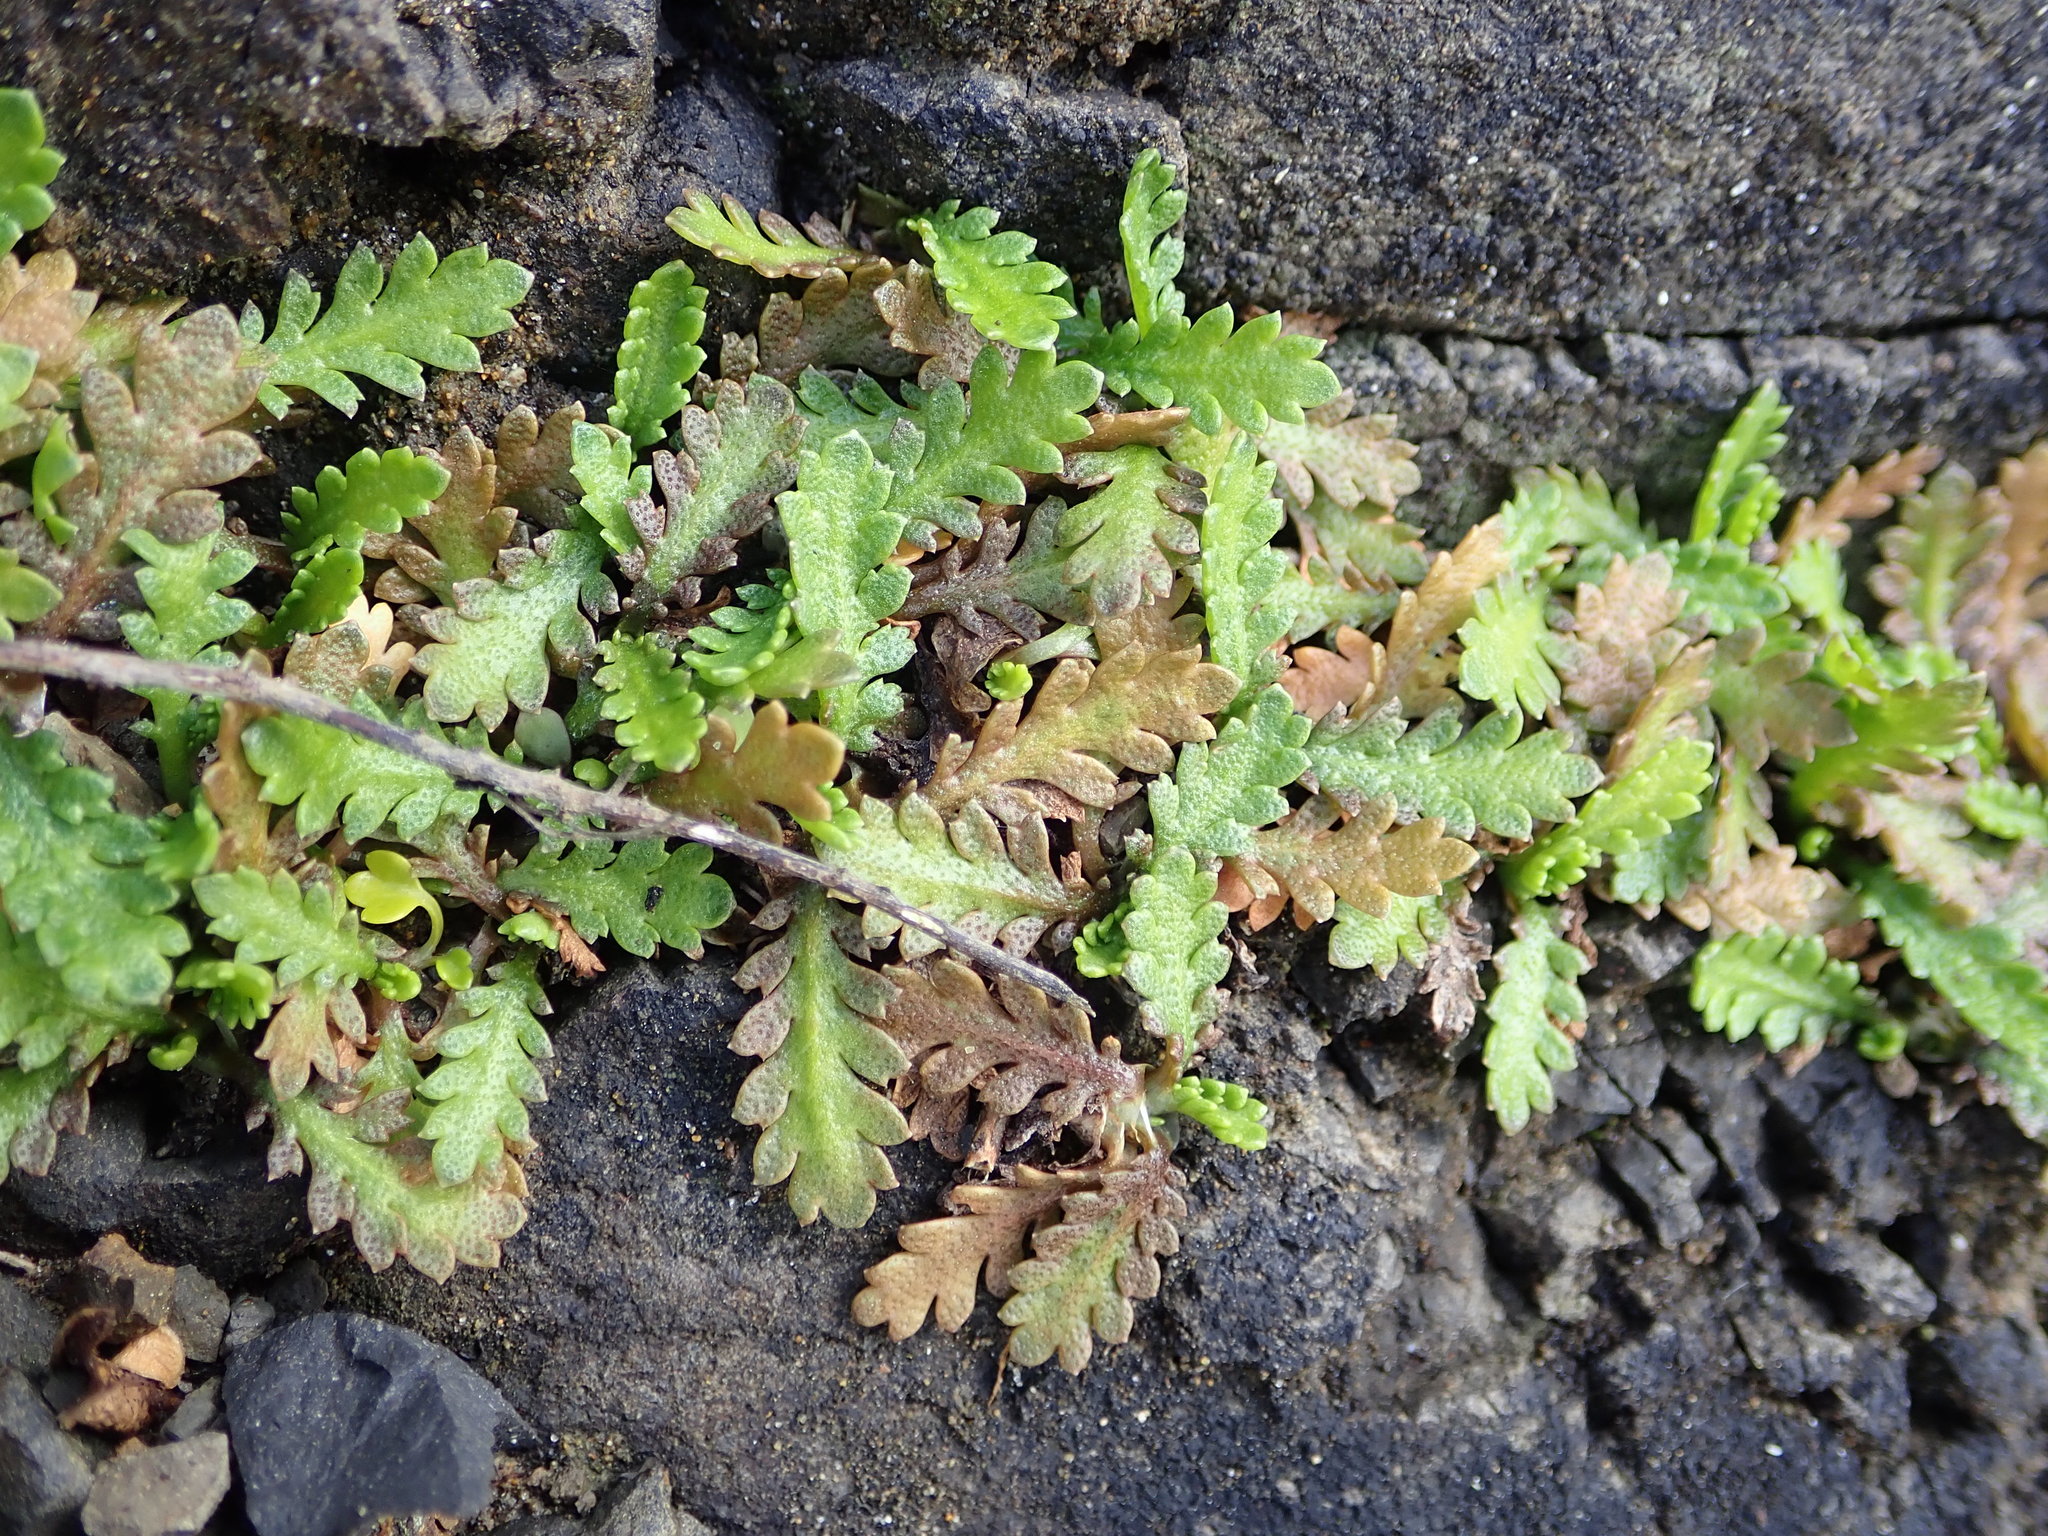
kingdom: Plantae
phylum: Tracheophyta
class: Magnoliopsida
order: Asterales
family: Asteraceae
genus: Leptinella
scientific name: Leptinella dioica
